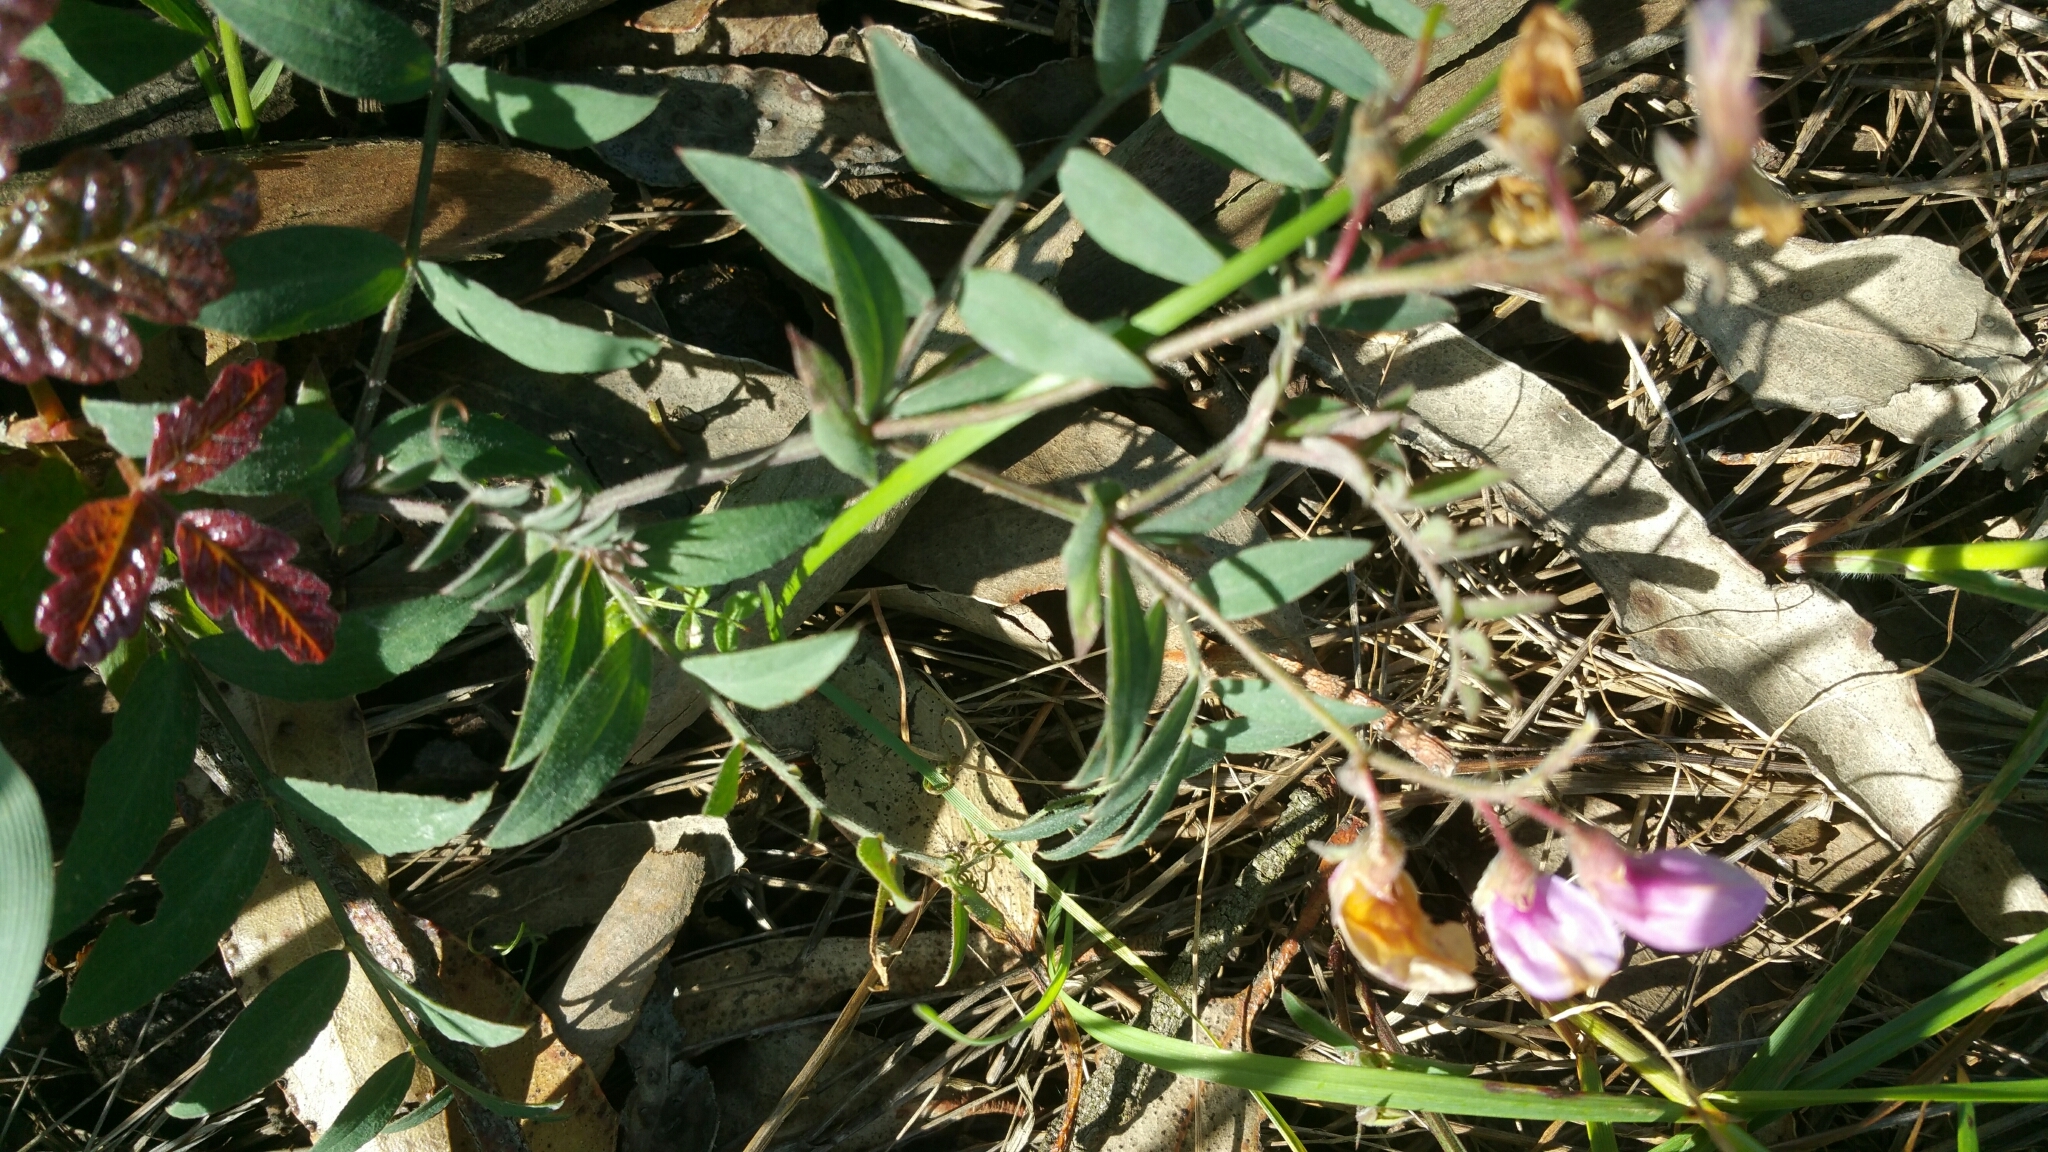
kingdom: Plantae
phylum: Tracheophyta
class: Magnoliopsida
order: Fabales
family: Fabaceae
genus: Lathyrus
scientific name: Lathyrus vestitus
